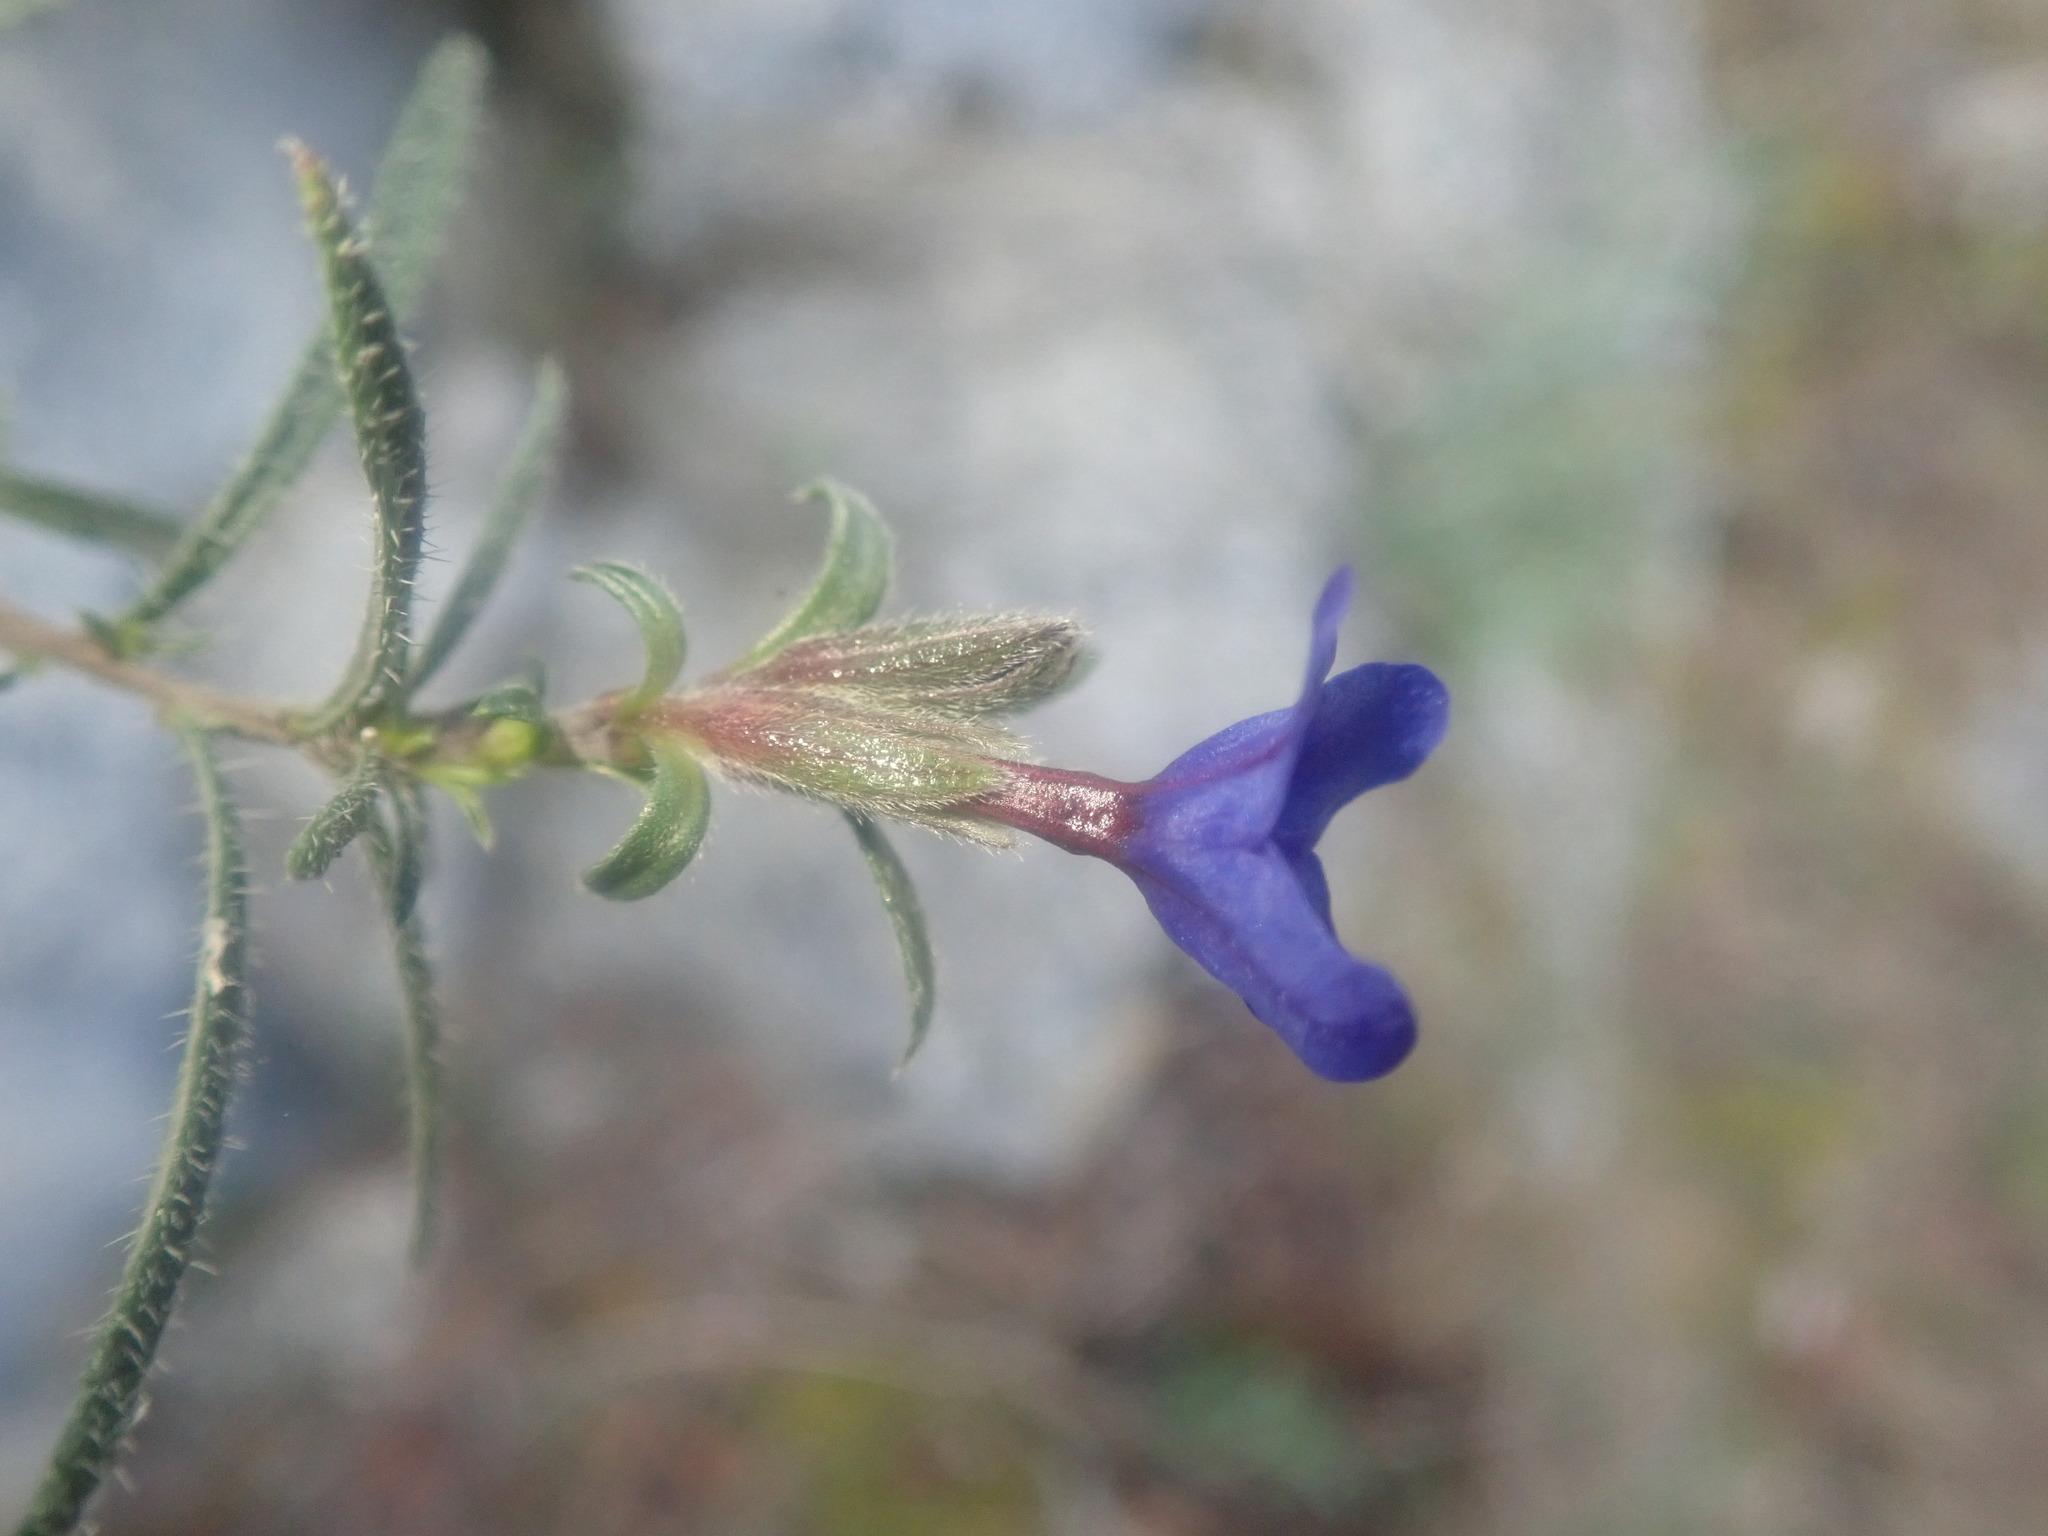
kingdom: Plantae
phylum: Tracheophyta
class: Magnoliopsida
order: Boraginales
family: Boraginaceae
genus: Lithodora
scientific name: Lithodora fruticosa
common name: Shrubby gromwell
